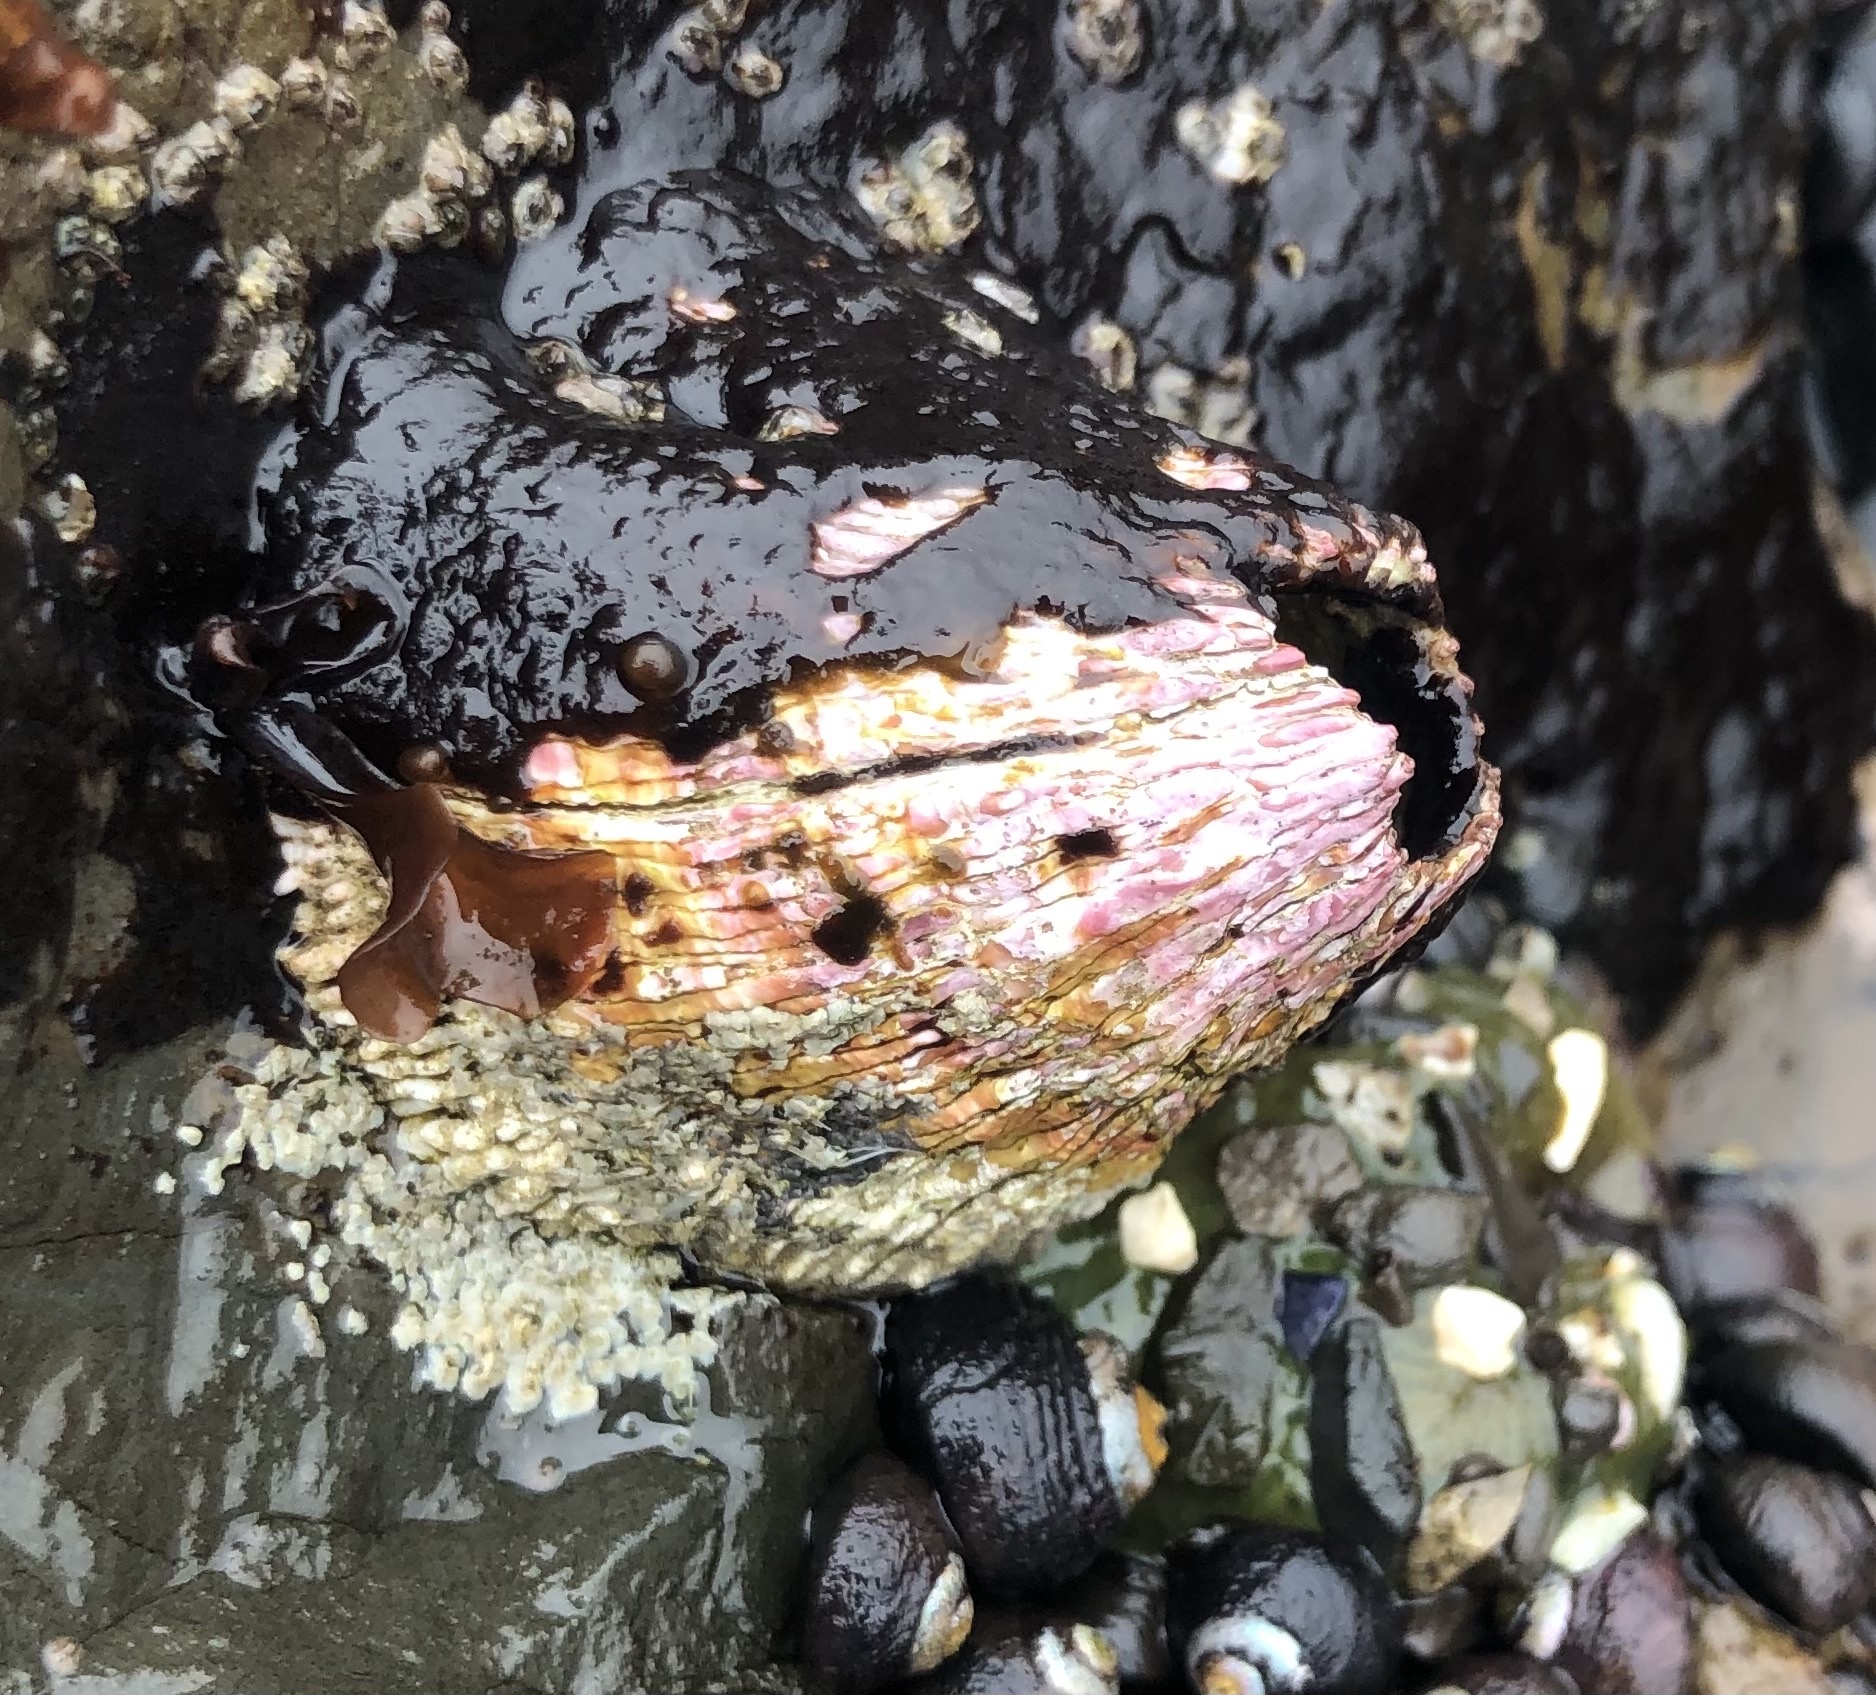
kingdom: Animalia
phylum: Arthropoda
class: Maxillopoda
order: Sessilia
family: Tetraclitidae
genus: Tetraclita
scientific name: Tetraclita rubescens
